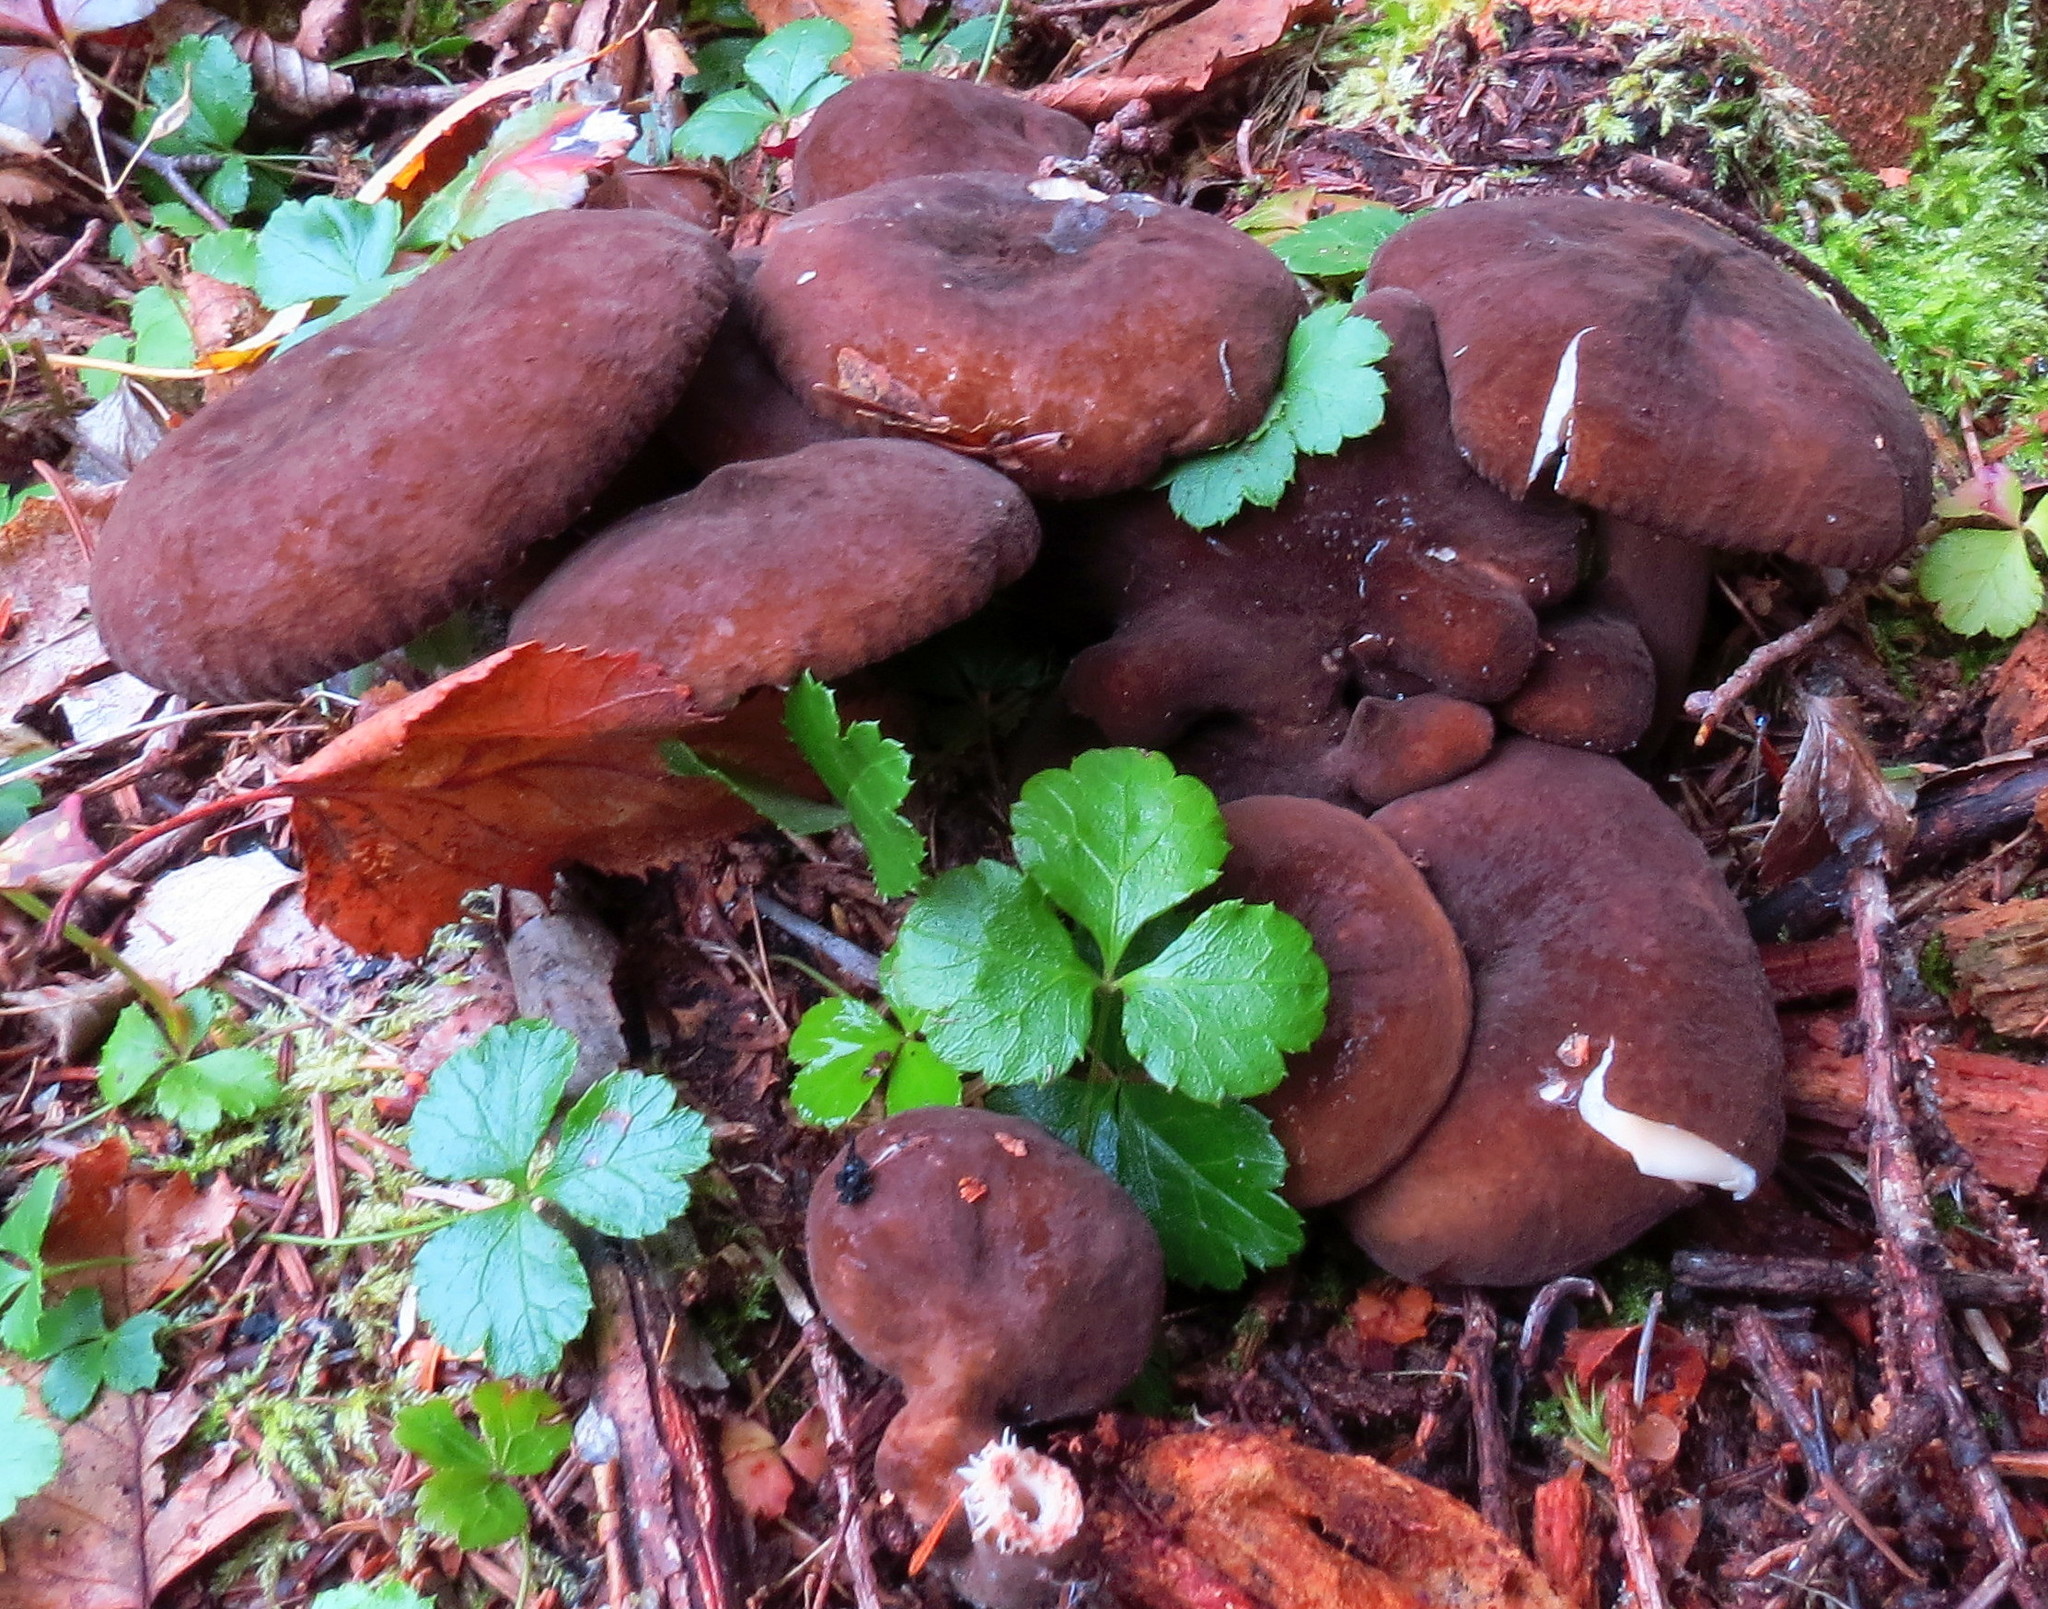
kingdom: Fungi
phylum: Basidiomycota
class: Agaricomycetes
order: Russulales
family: Russulaceae
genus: Lactarius
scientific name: Lactarius lignyotus
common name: Velvet milkcap
